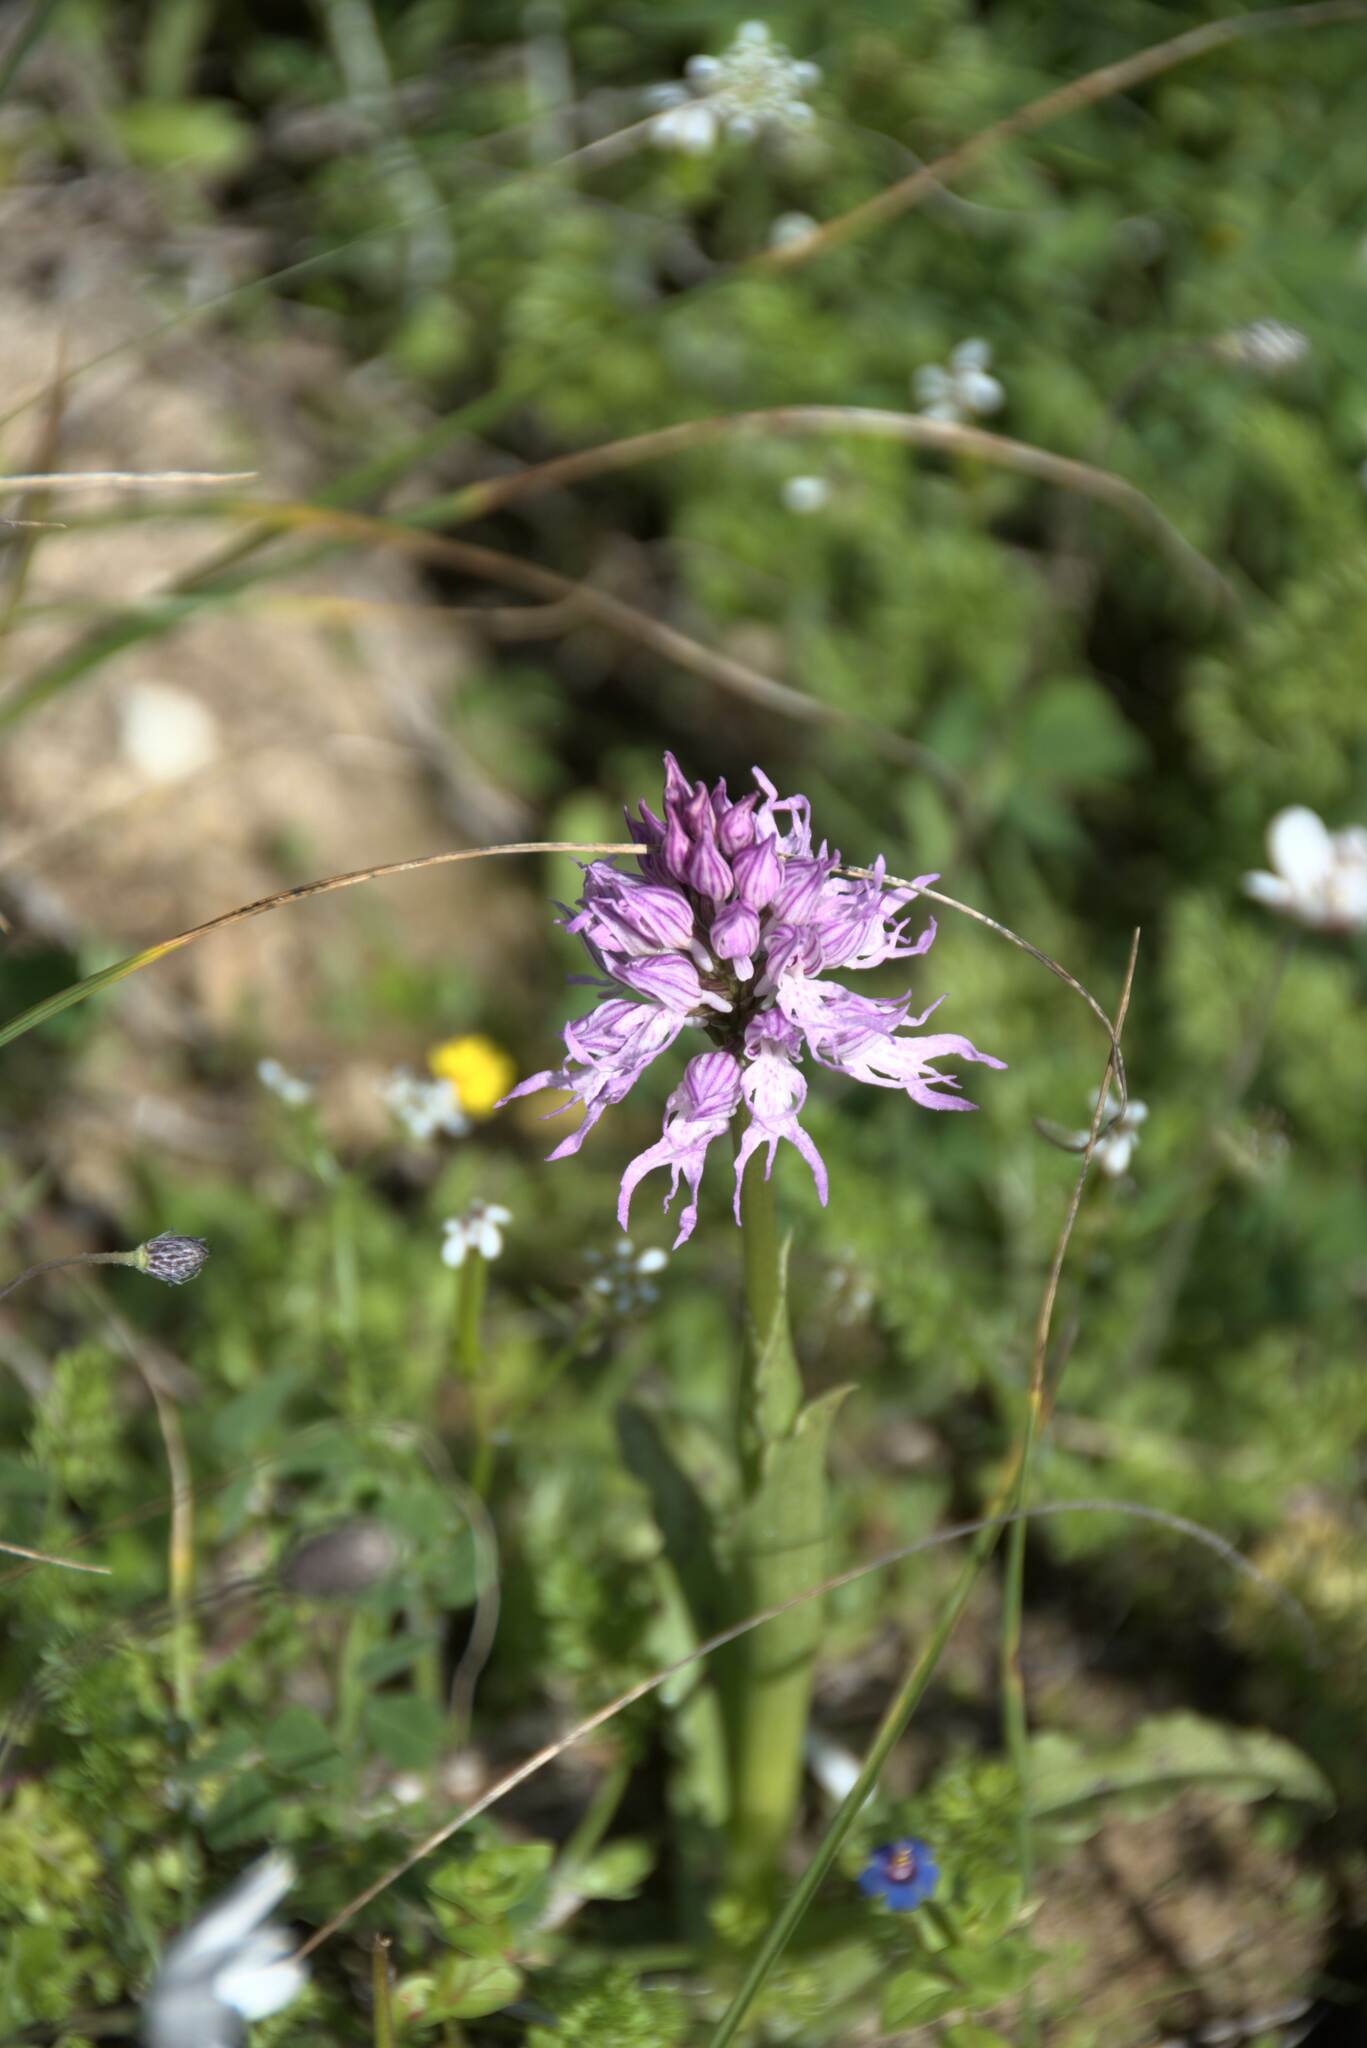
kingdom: Plantae
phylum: Tracheophyta
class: Liliopsida
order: Asparagales
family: Orchidaceae
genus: Orchis
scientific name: Orchis italica
